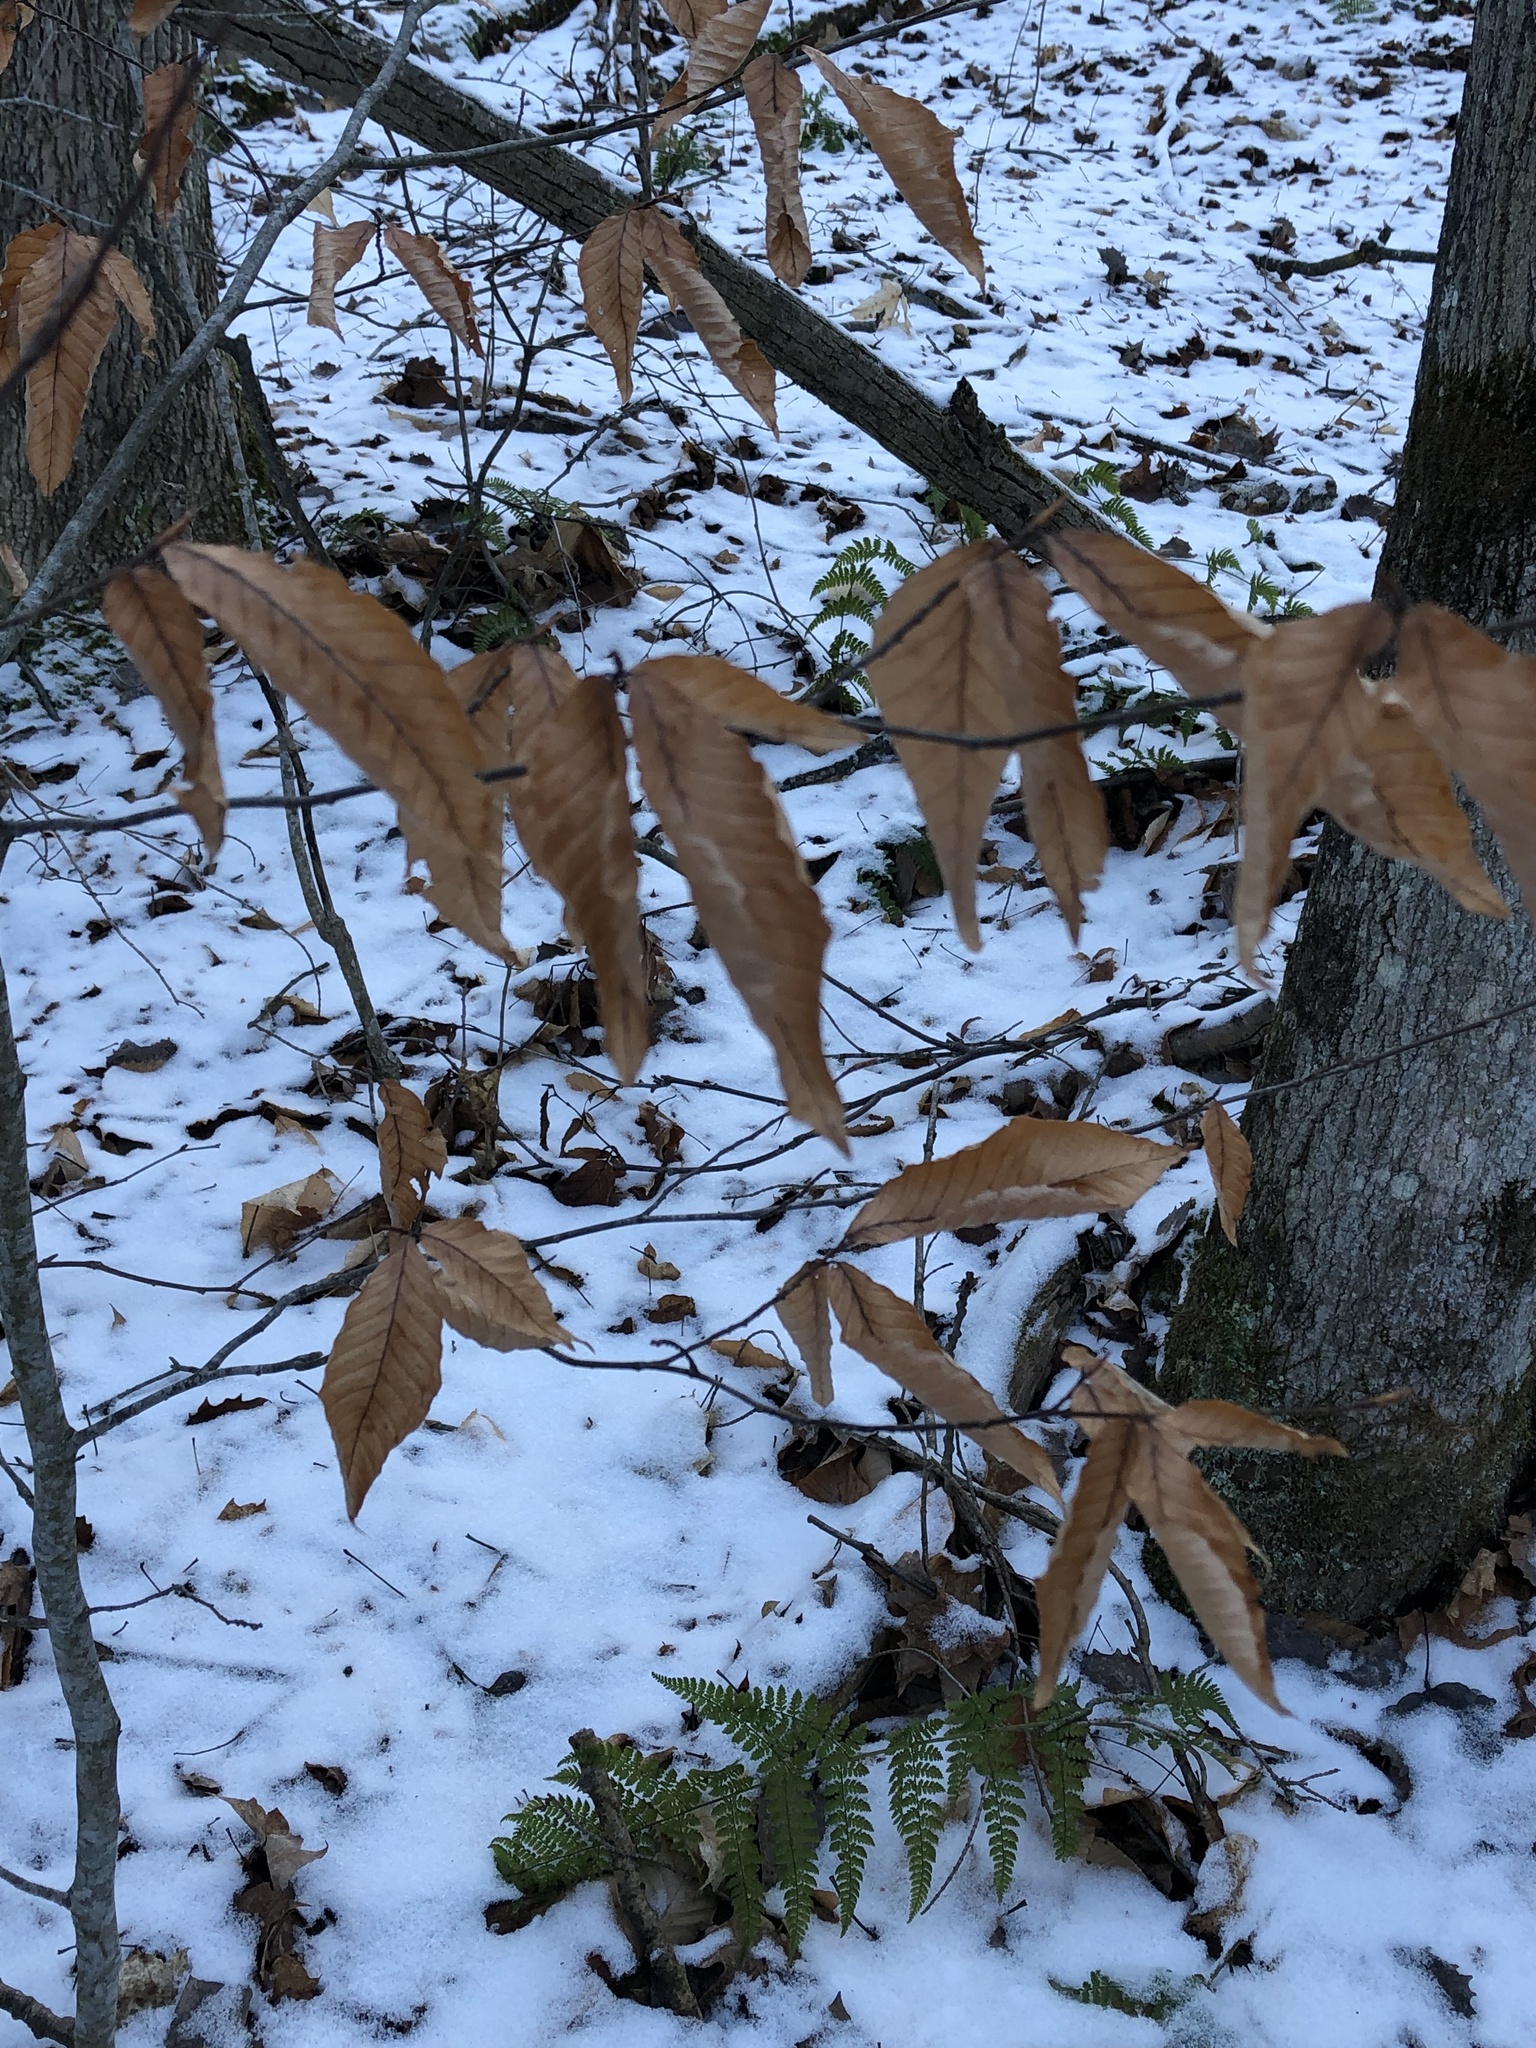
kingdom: Plantae
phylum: Tracheophyta
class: Magnoliopsida
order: Fagales
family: Fagaceae
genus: Fagus
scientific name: Fagus grandifolia
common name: American beech
